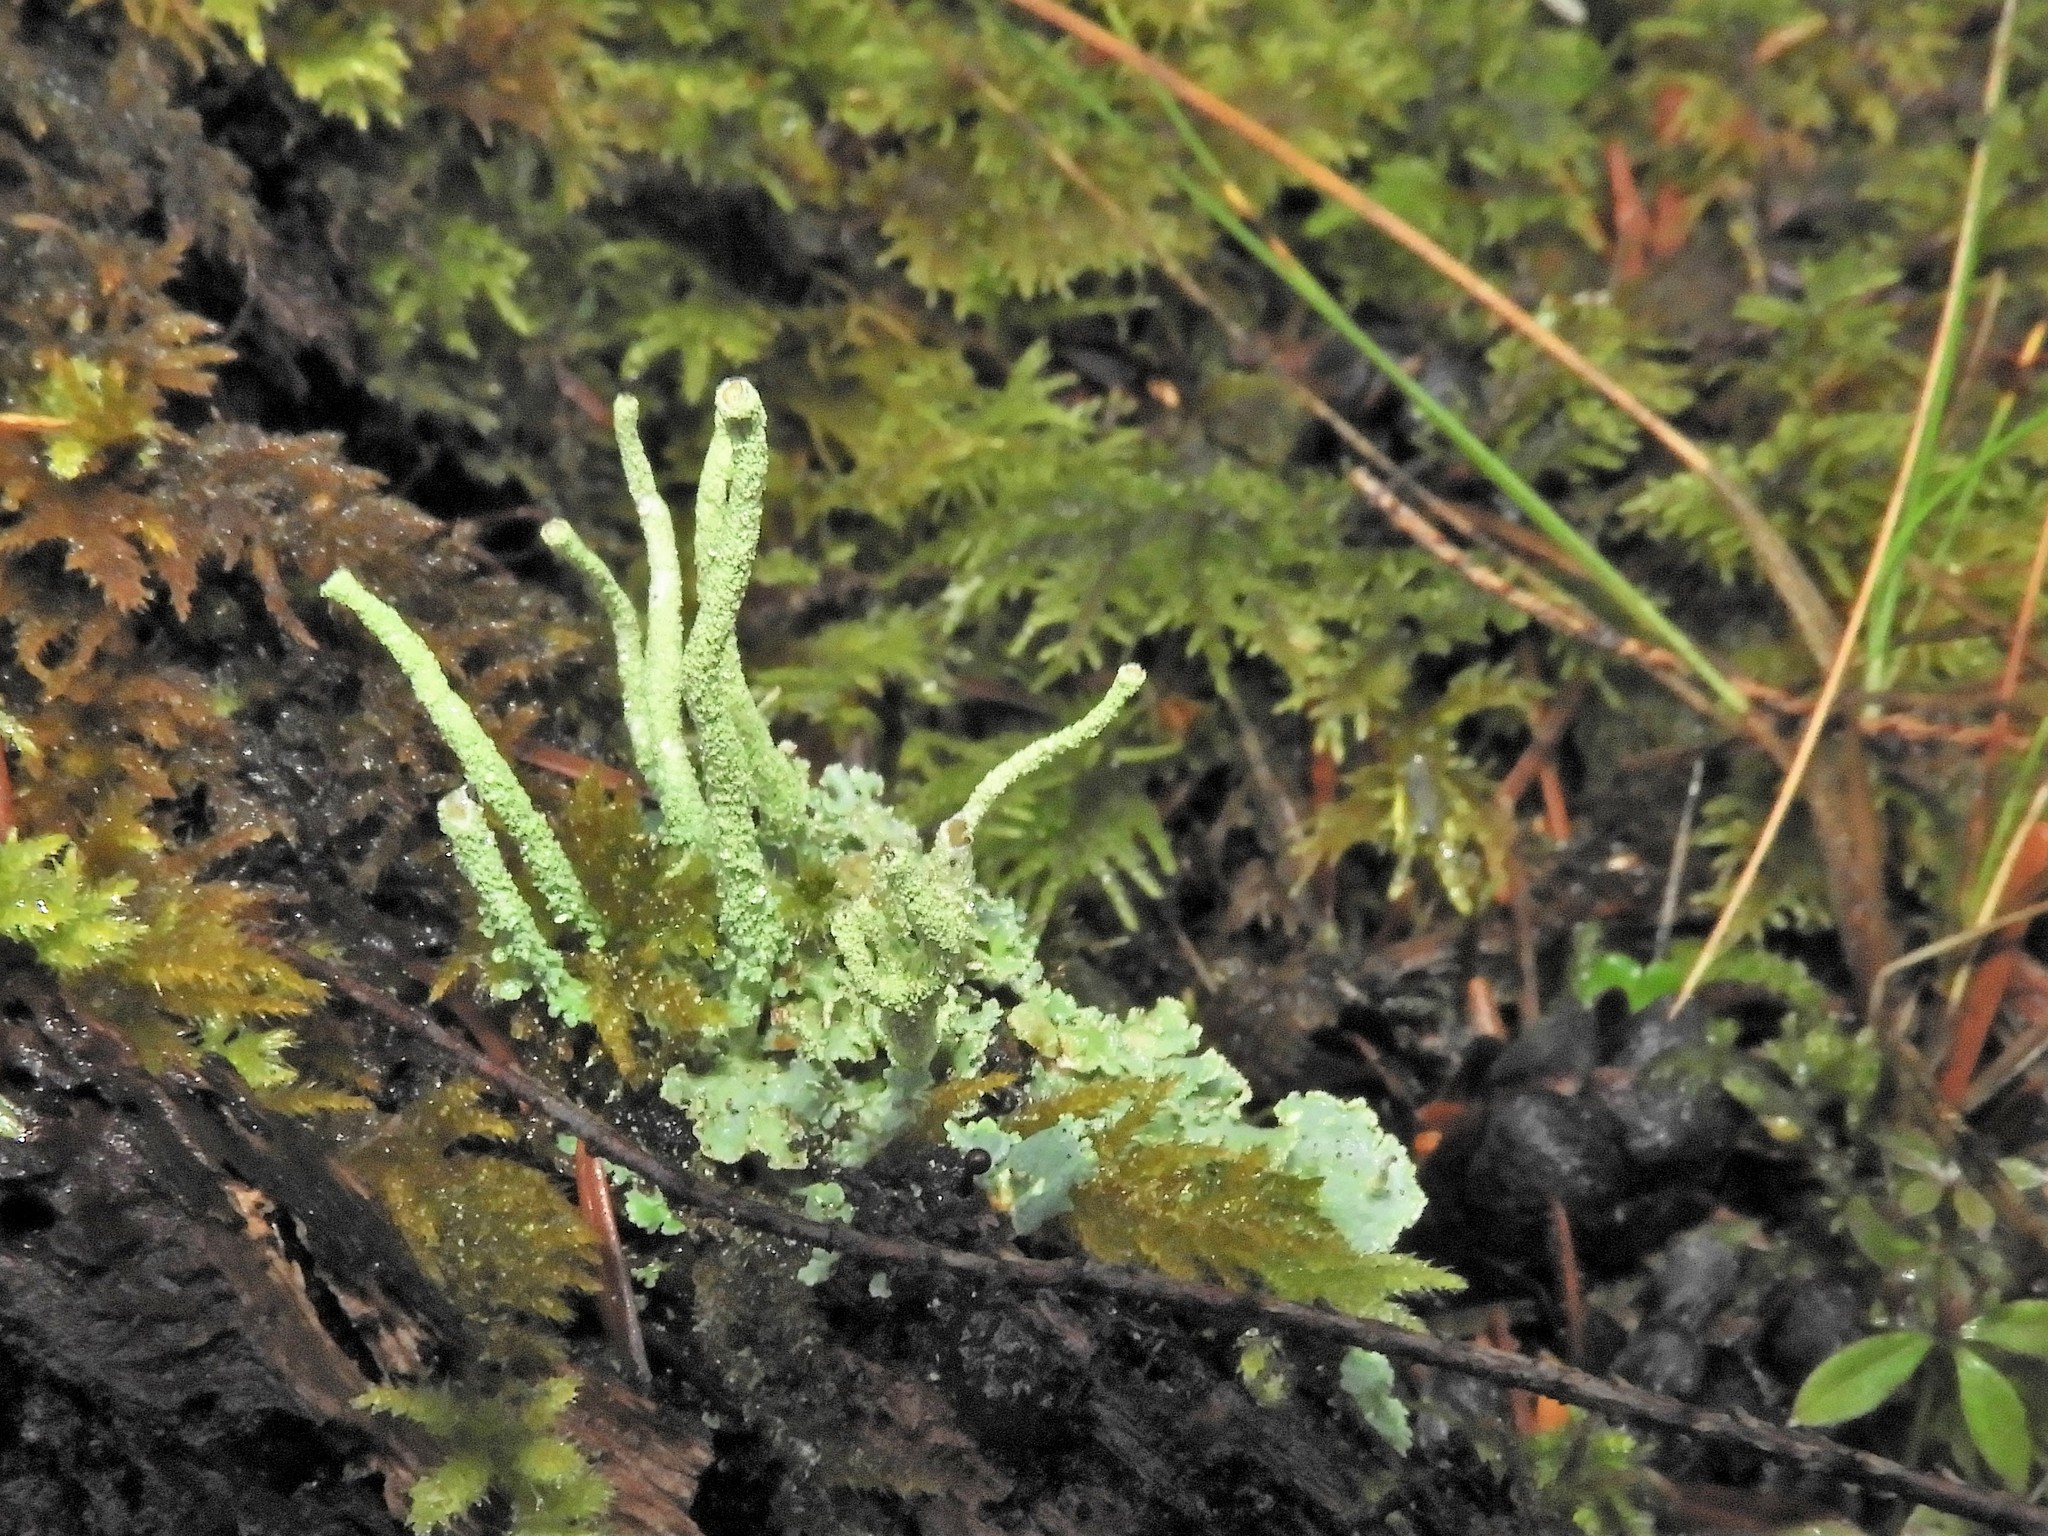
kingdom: Fungi
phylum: Ascomycota
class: Lecanoromycetes
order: Lecanorales
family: Cladoniaceae
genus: Cladonia
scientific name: Cladonia coniocraea
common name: Common powderhorn
